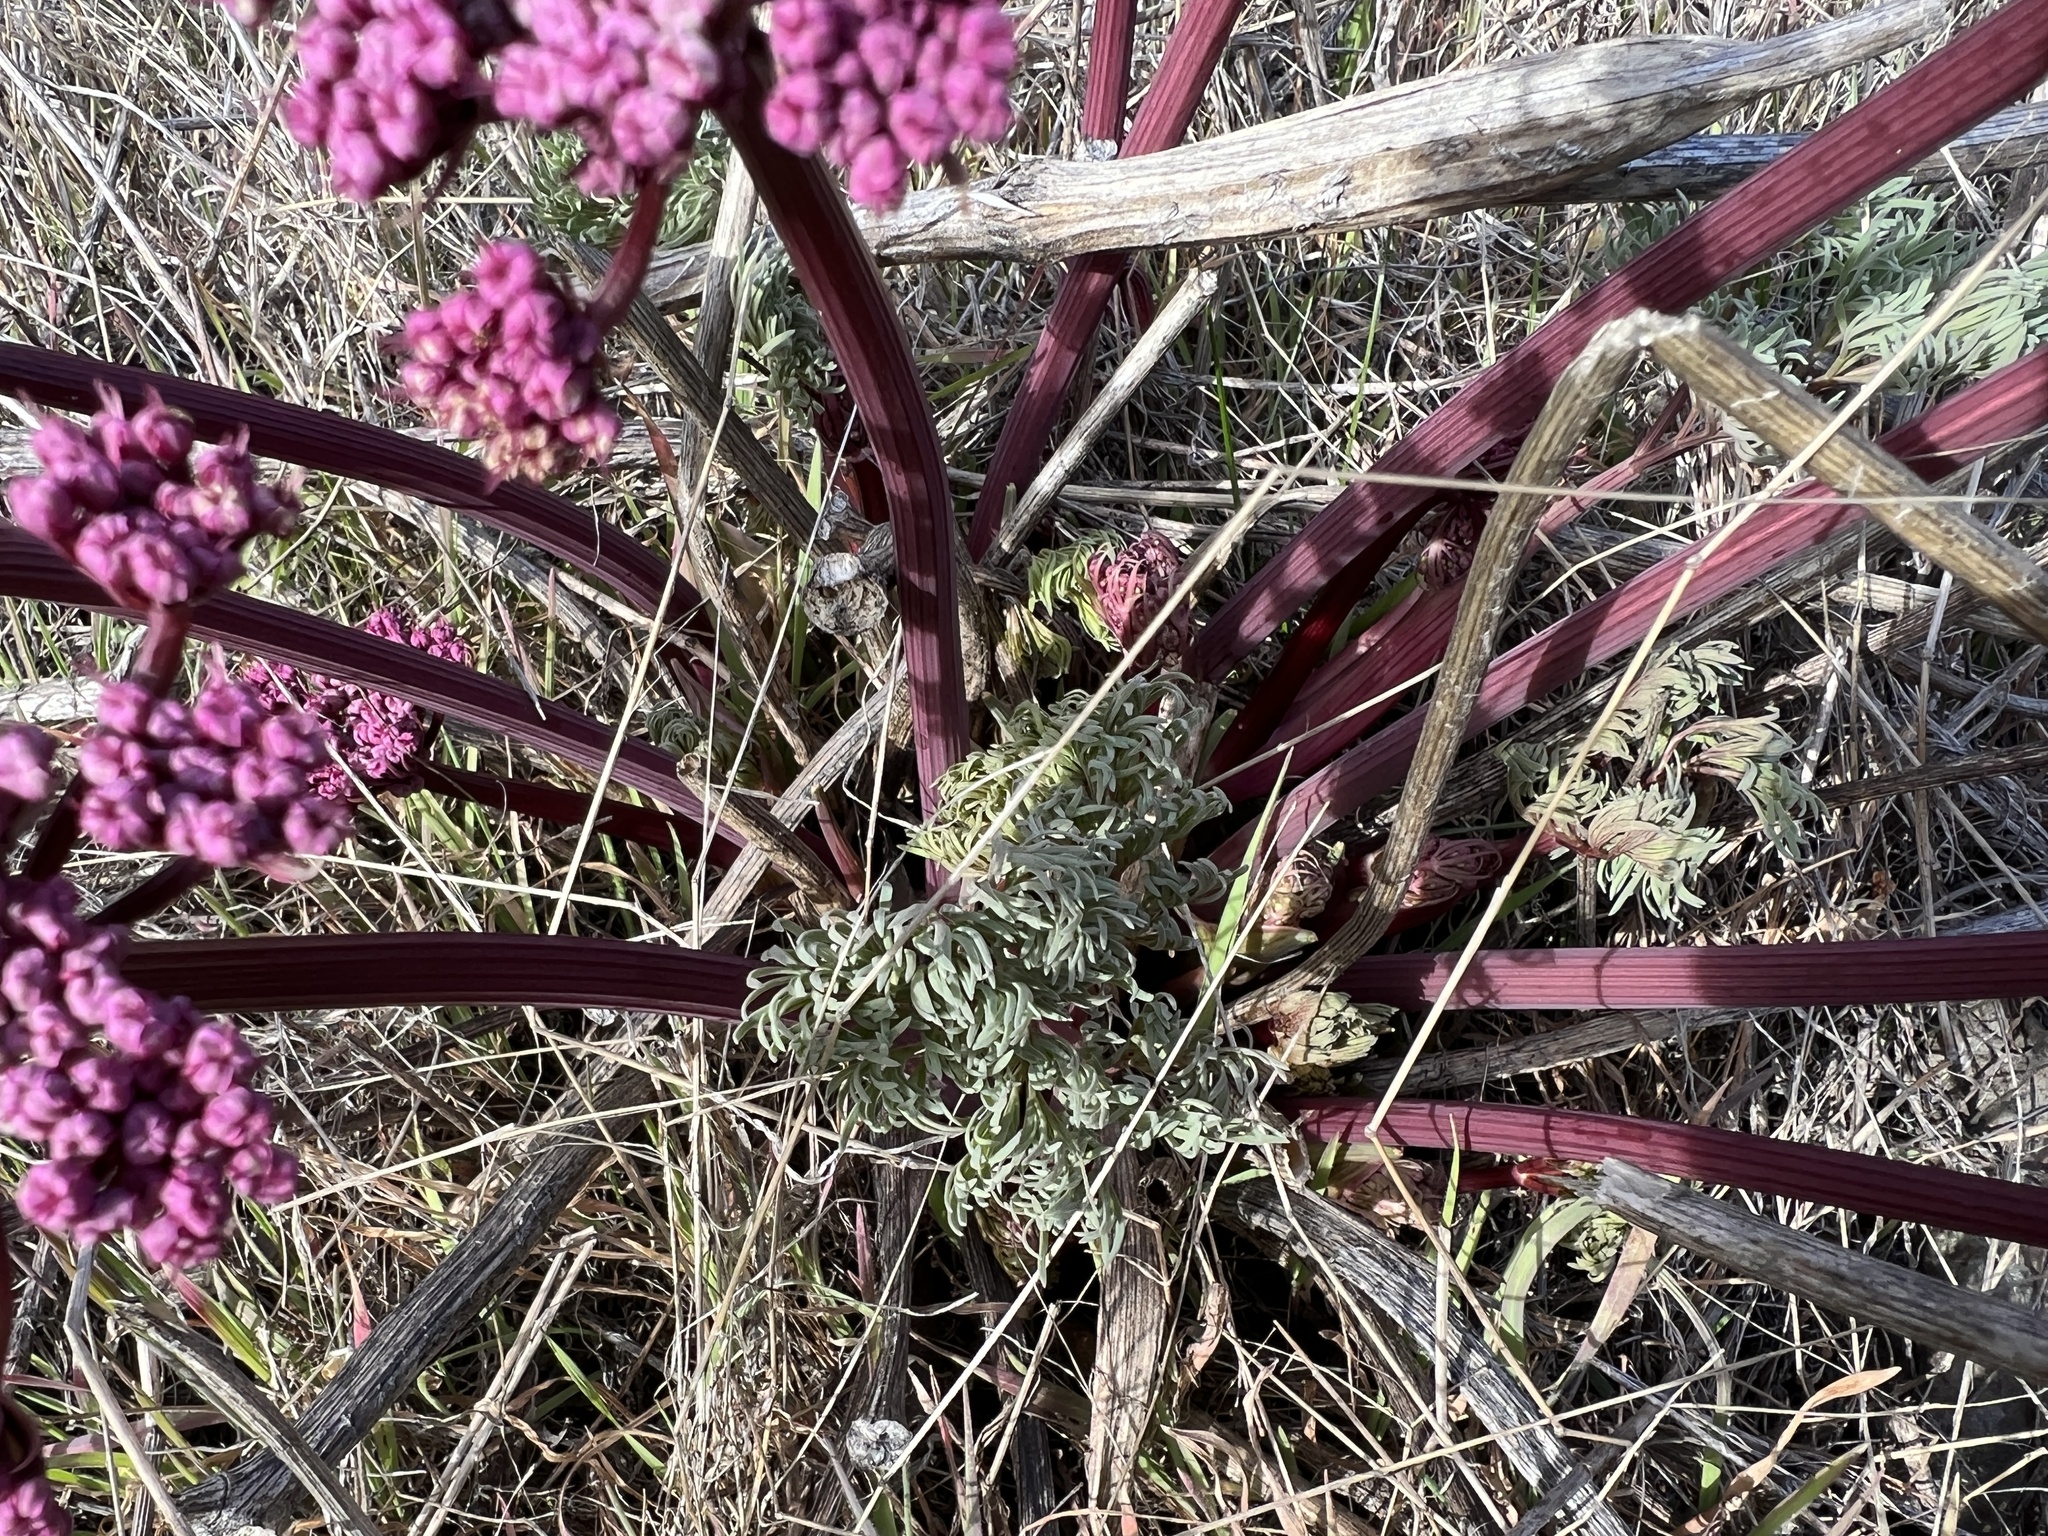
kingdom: Plantae
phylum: Tracheophyta
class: Magnoliopsida
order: Apiales
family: Apiaceae
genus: Lomatium
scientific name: Lomatium columbianum
